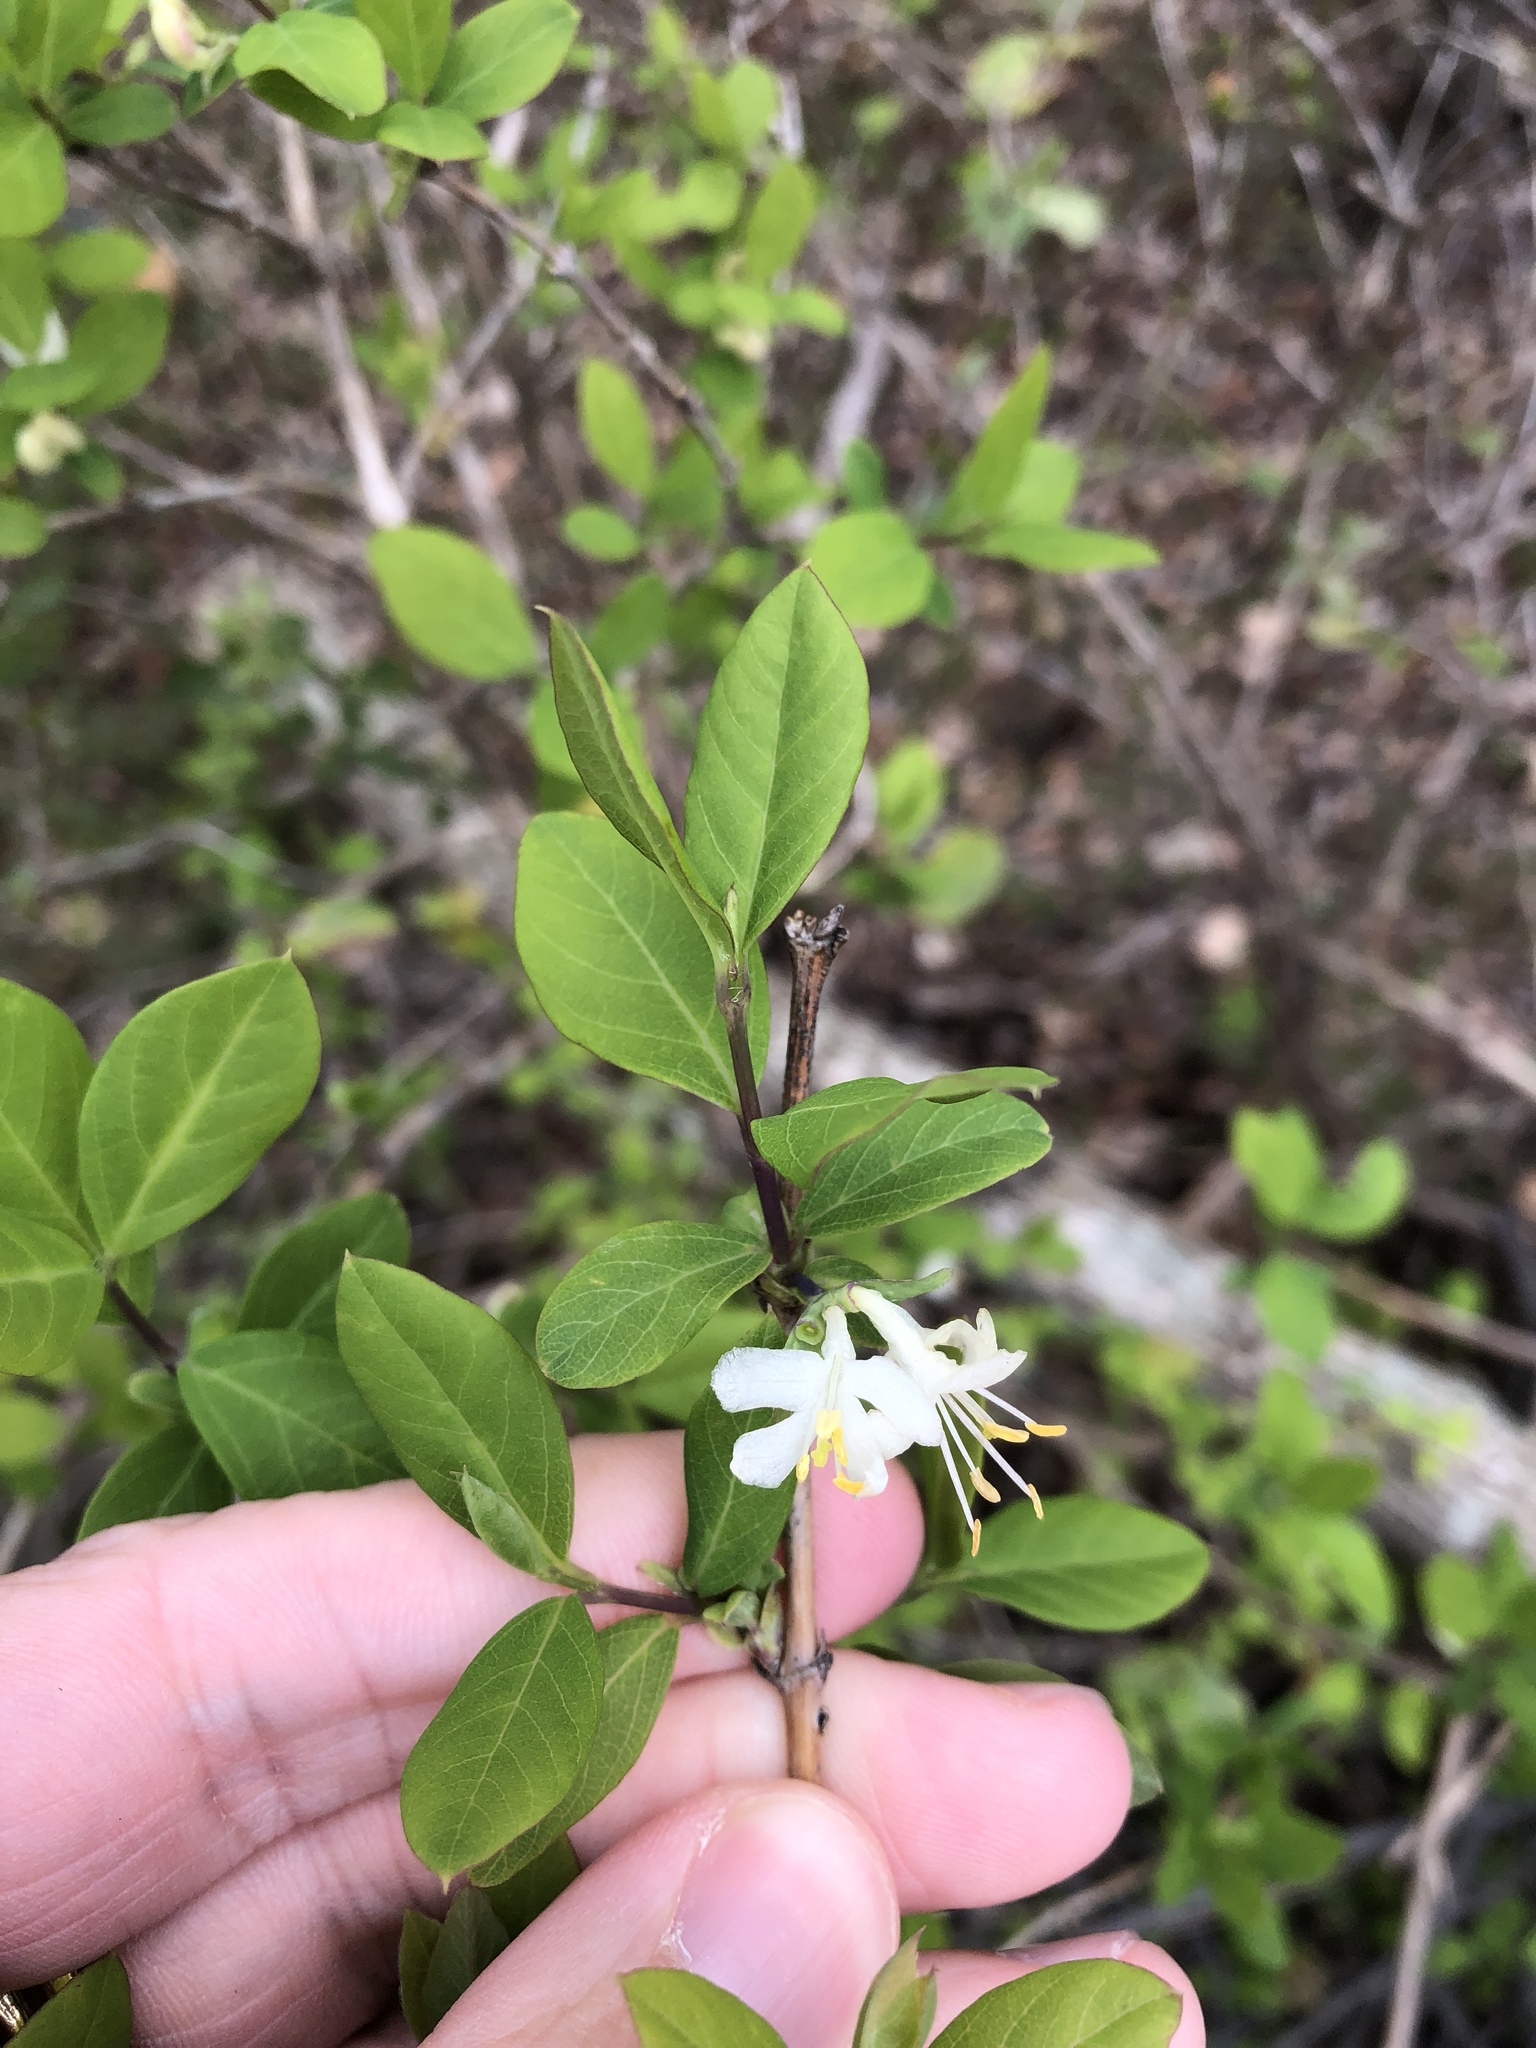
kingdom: Plantae
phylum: Tracheophyta
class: Magnoliopsida
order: Dipsacales
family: Caprifoliaceae
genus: Lonicera
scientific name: Lonicera fragrantissima
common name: Fragrant honeysuckle
